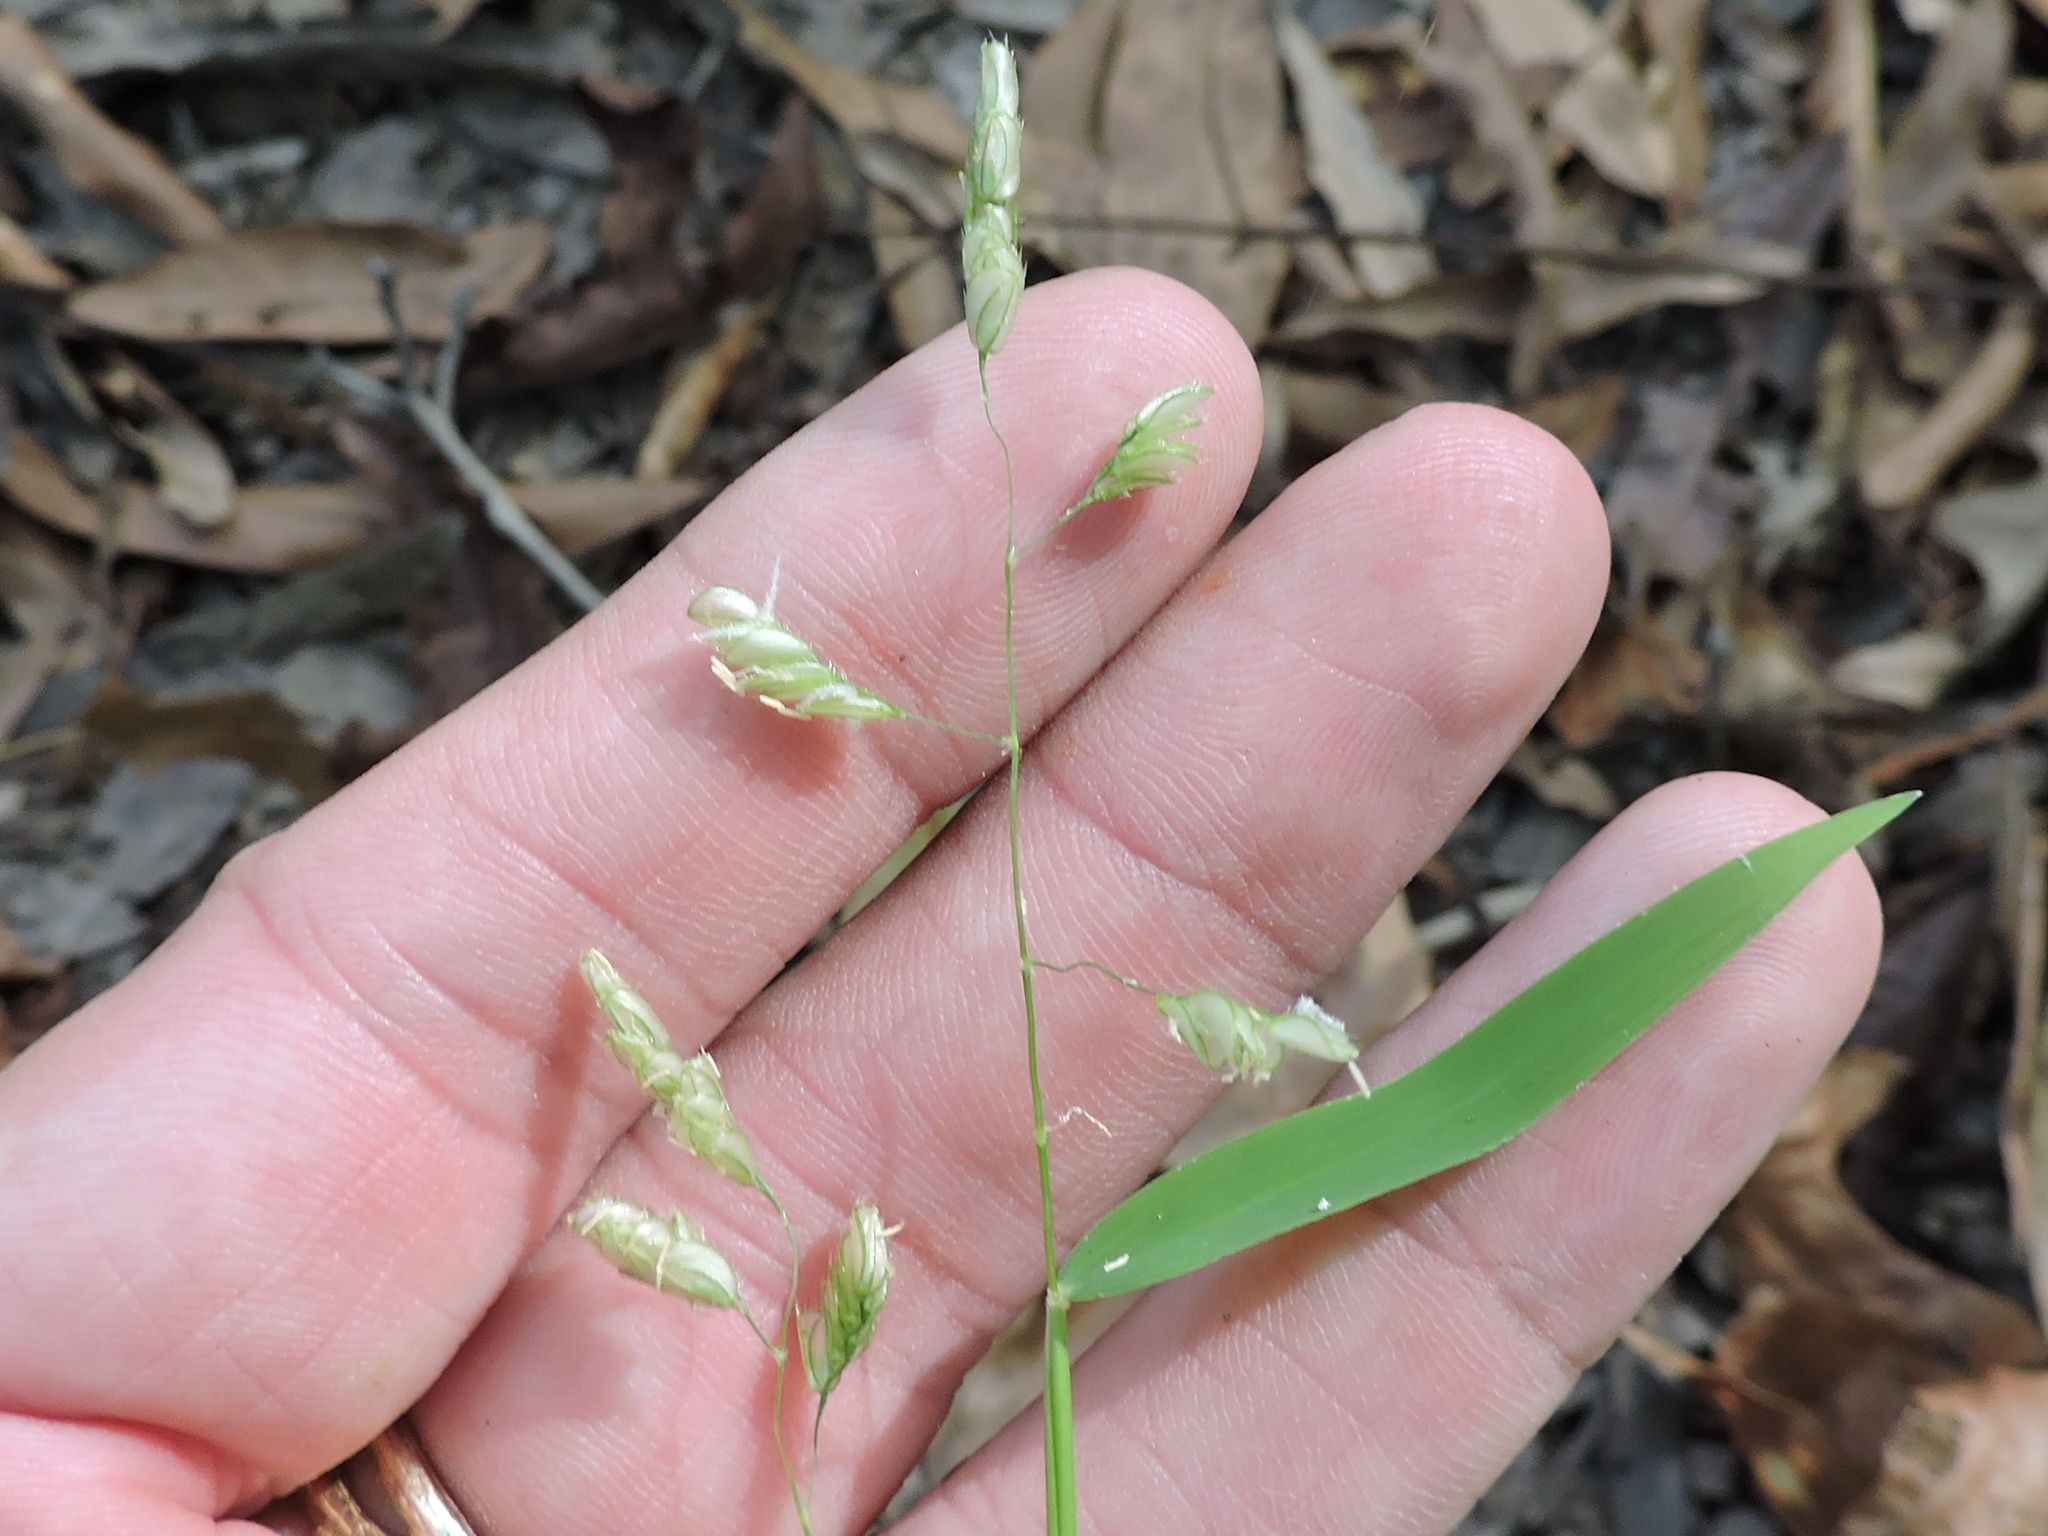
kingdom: Plantae
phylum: Tracheophyta
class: Liliopsida
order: Poales
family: Poaceae
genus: Leersia
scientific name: Leersia lenticularis
